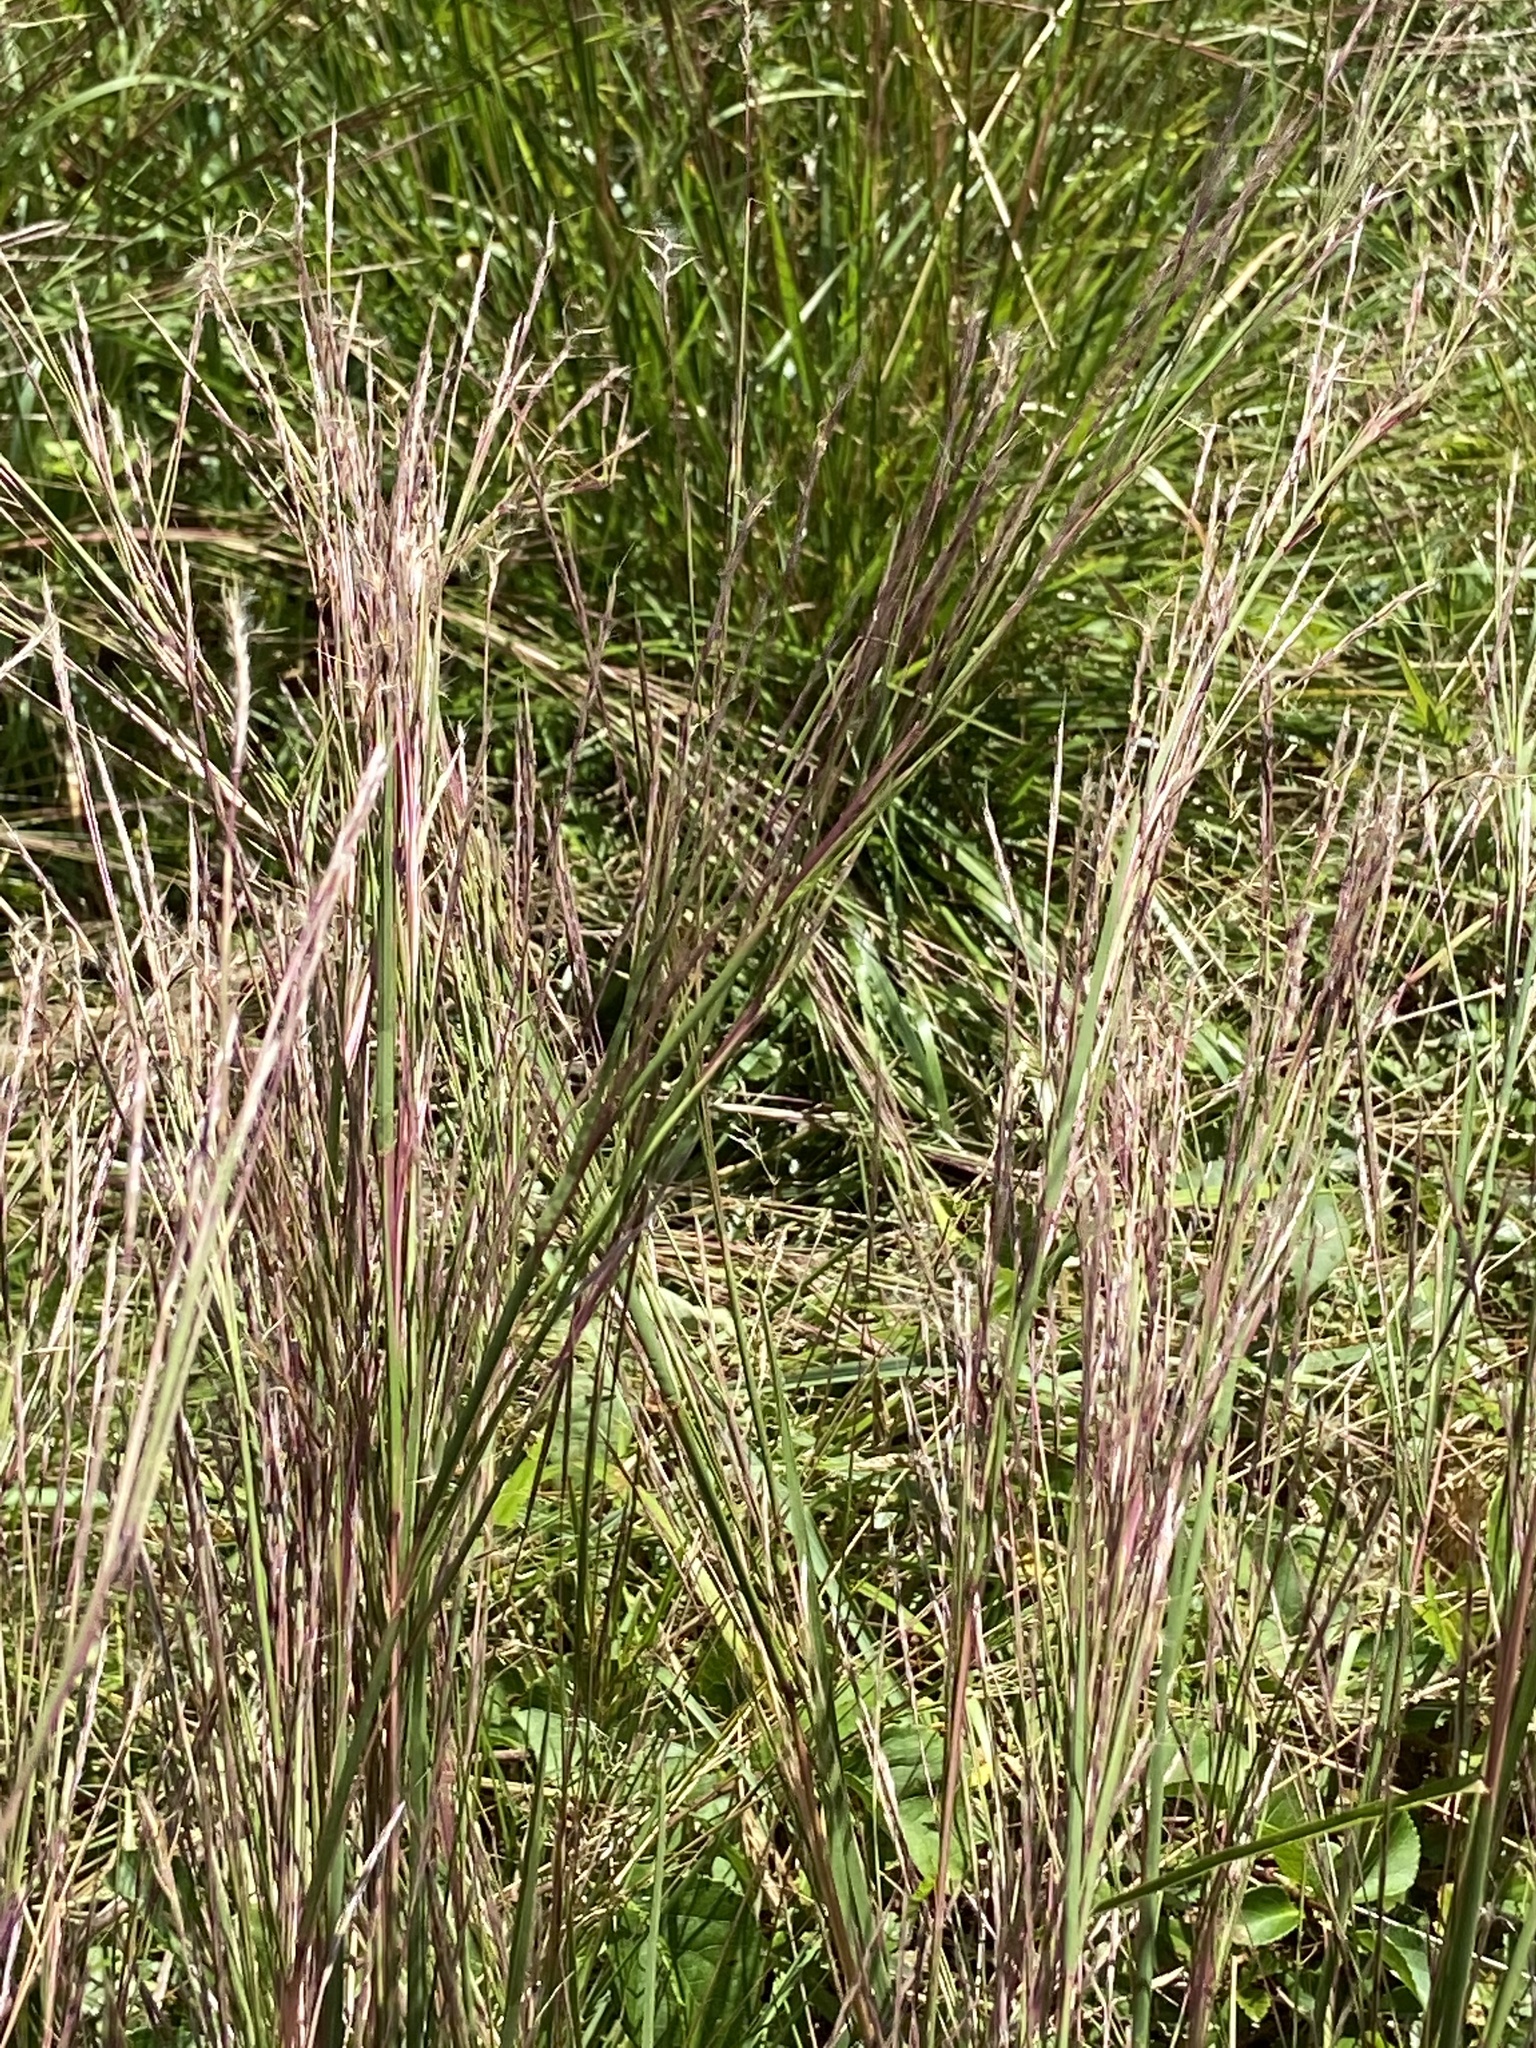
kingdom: Plantae
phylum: Tracheophyta
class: Liliopsida
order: Poales
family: Poaceae
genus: Schizachyrium
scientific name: Schizachyrium scoparium
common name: Little bluestem
